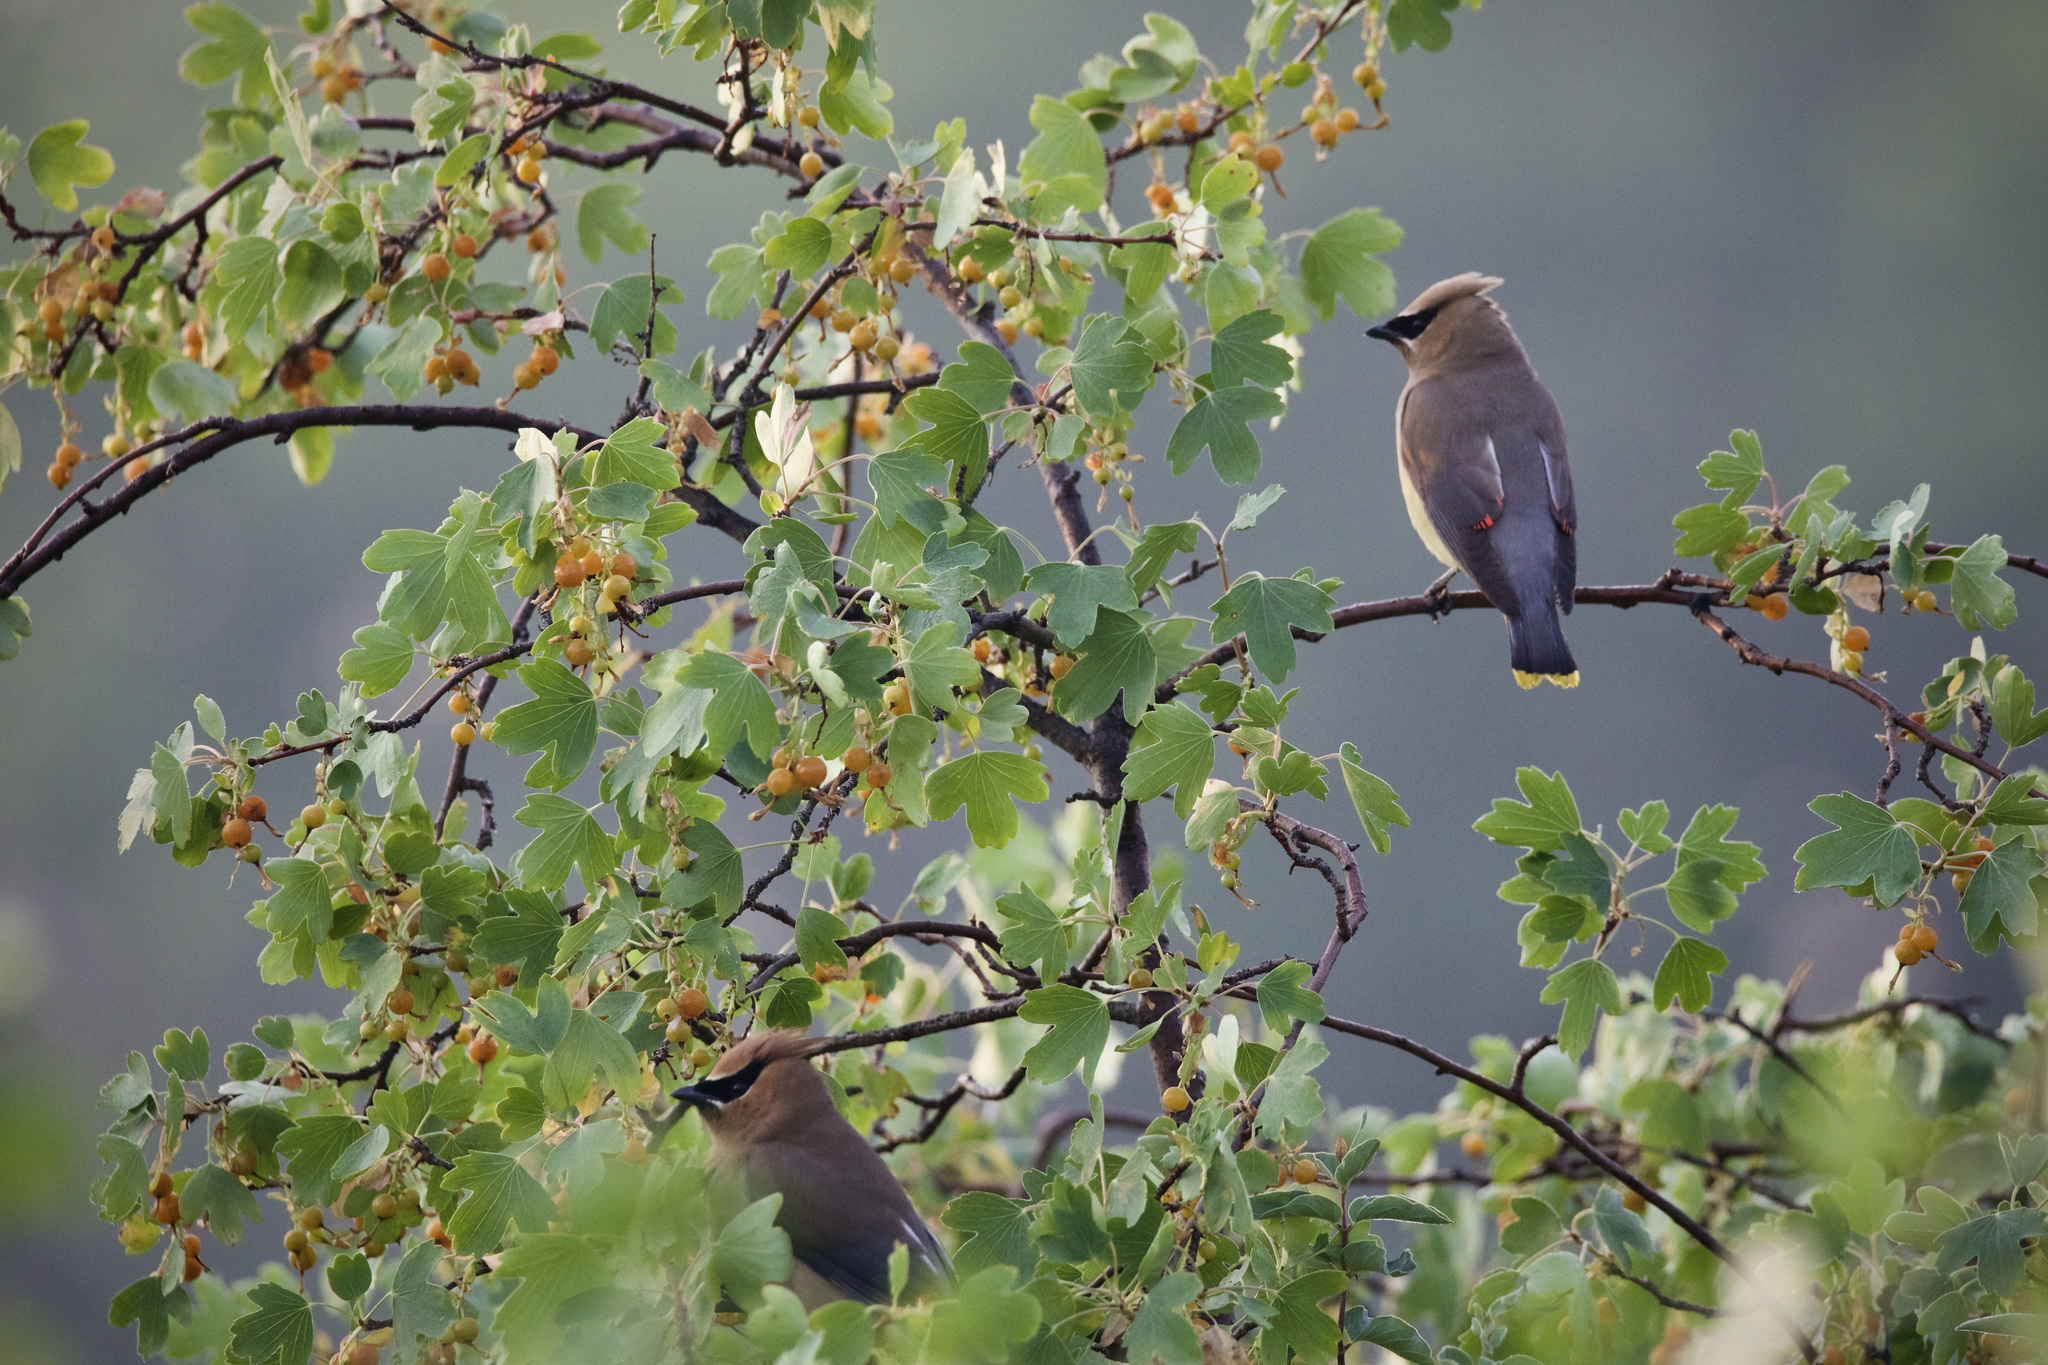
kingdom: Animalia
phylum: Chordata
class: Aves
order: Passeriformes
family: Bombycillidae
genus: Bombycilla
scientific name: Bombycilla cedrorum
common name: Cedar waxwing
